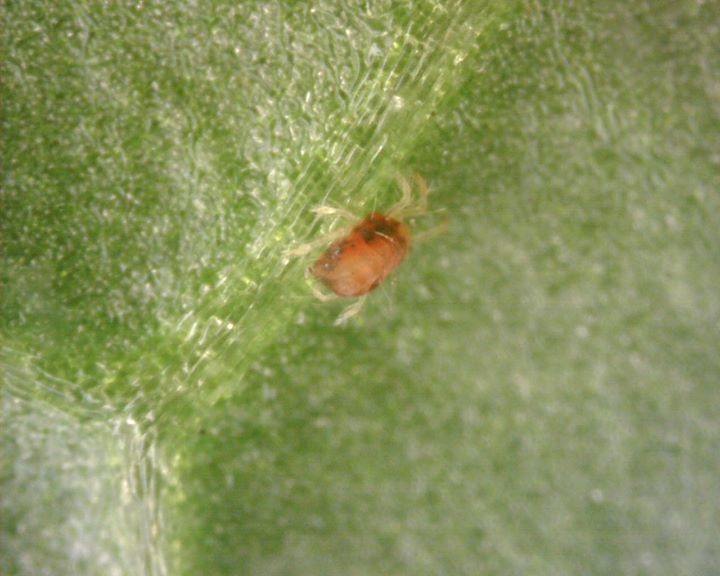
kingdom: Animalia
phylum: Arthropoda
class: Arachnida
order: Trombidiformes
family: Tetranychidae
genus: Tetranychus
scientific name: Tetranychus urticae
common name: Carmine spider mite
